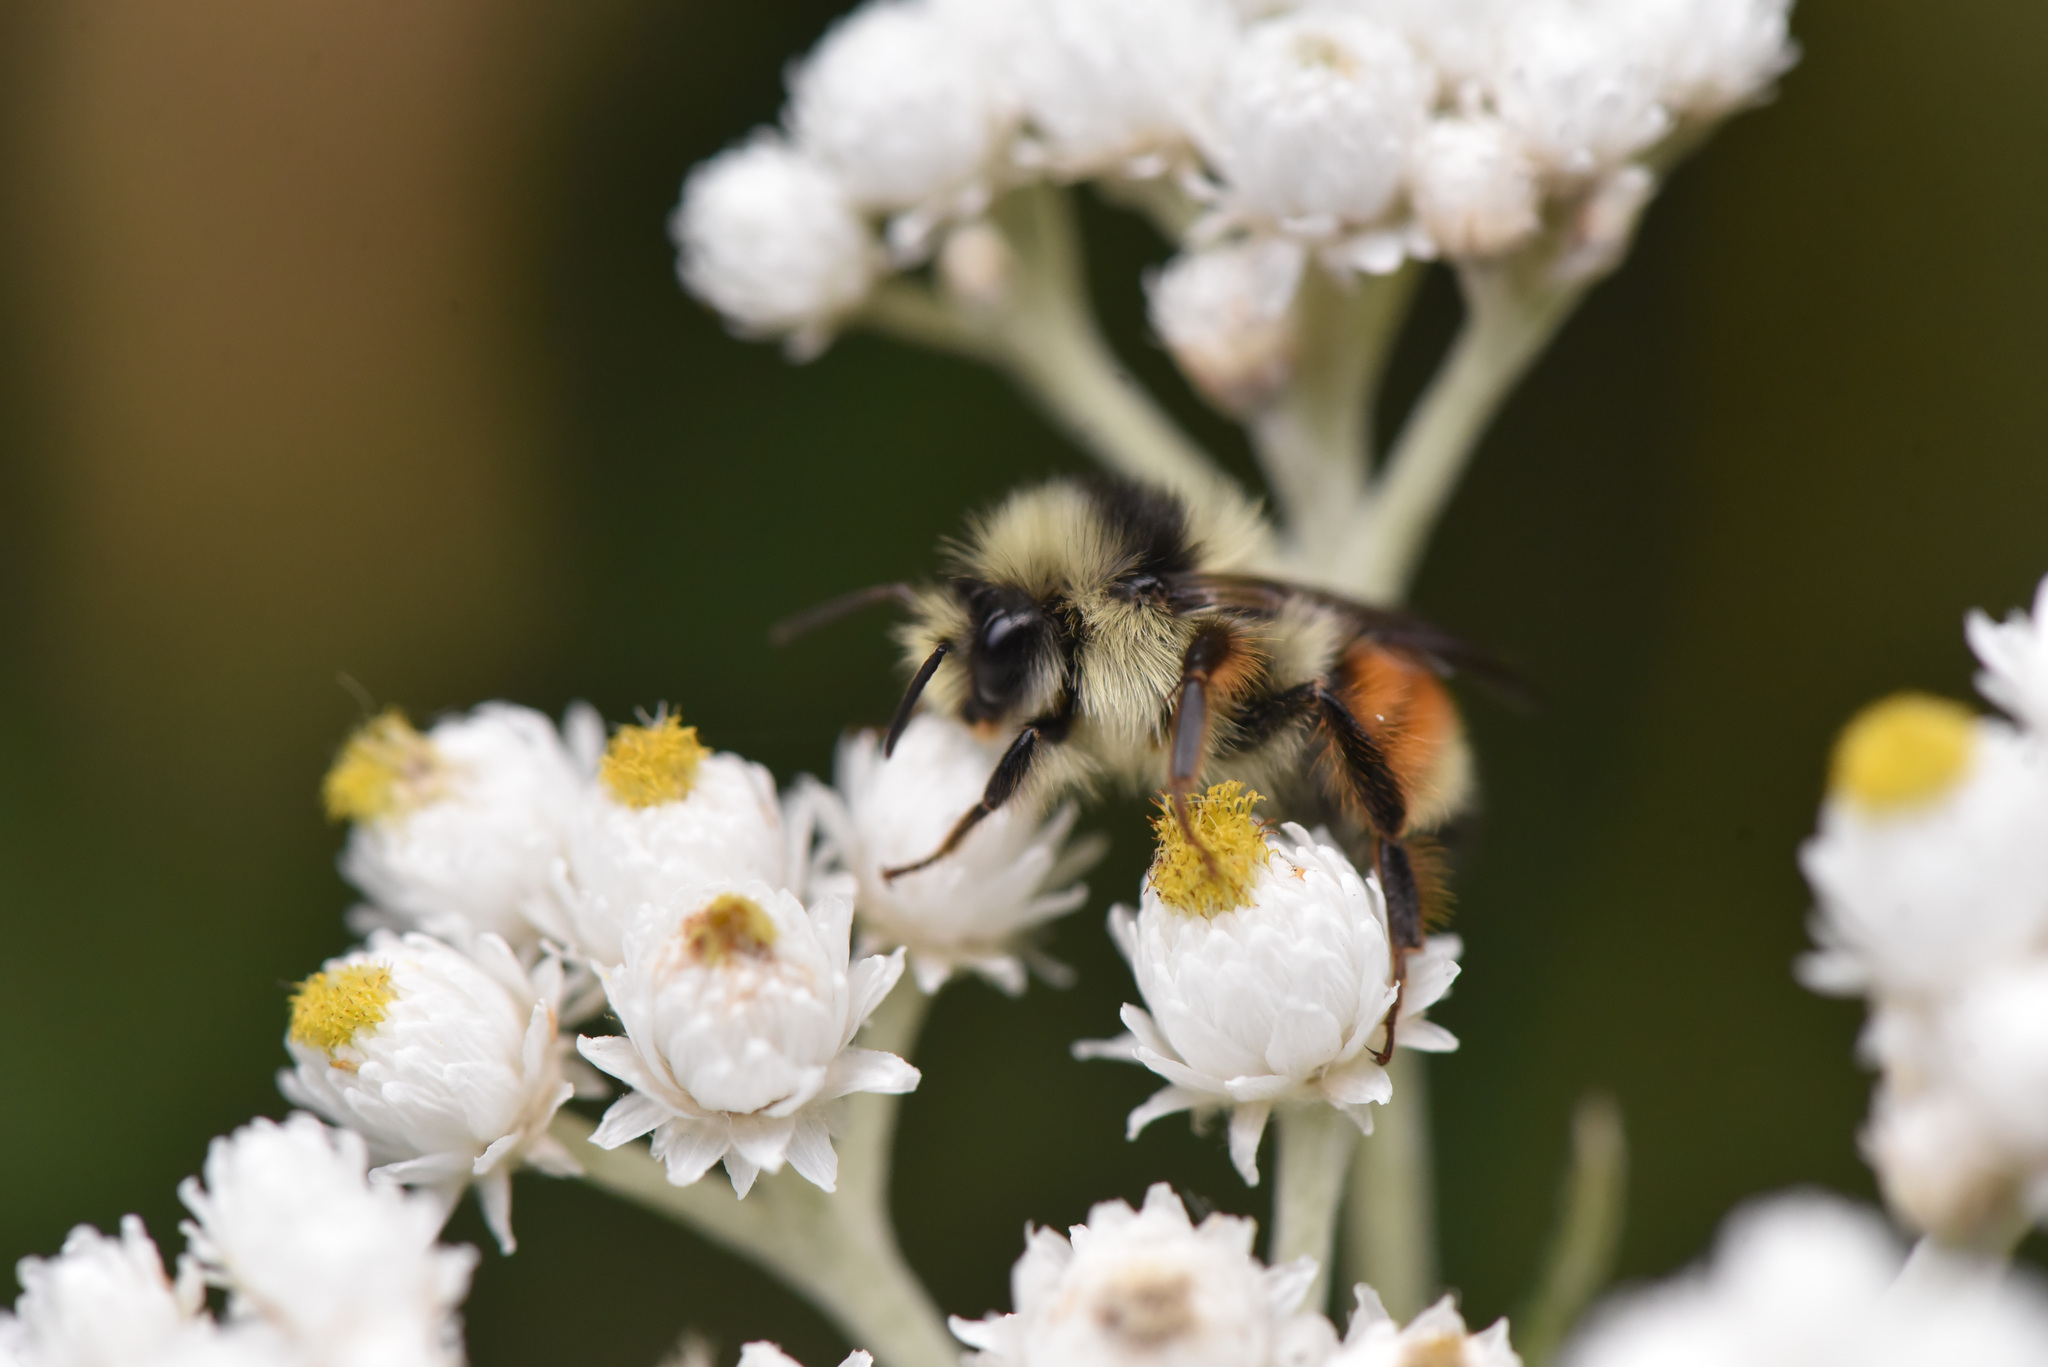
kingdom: Animalia
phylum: Arthropoda
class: Insecta
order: Hymenoptera
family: Apidae
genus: Bombus
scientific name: Bombus vancouverensis
